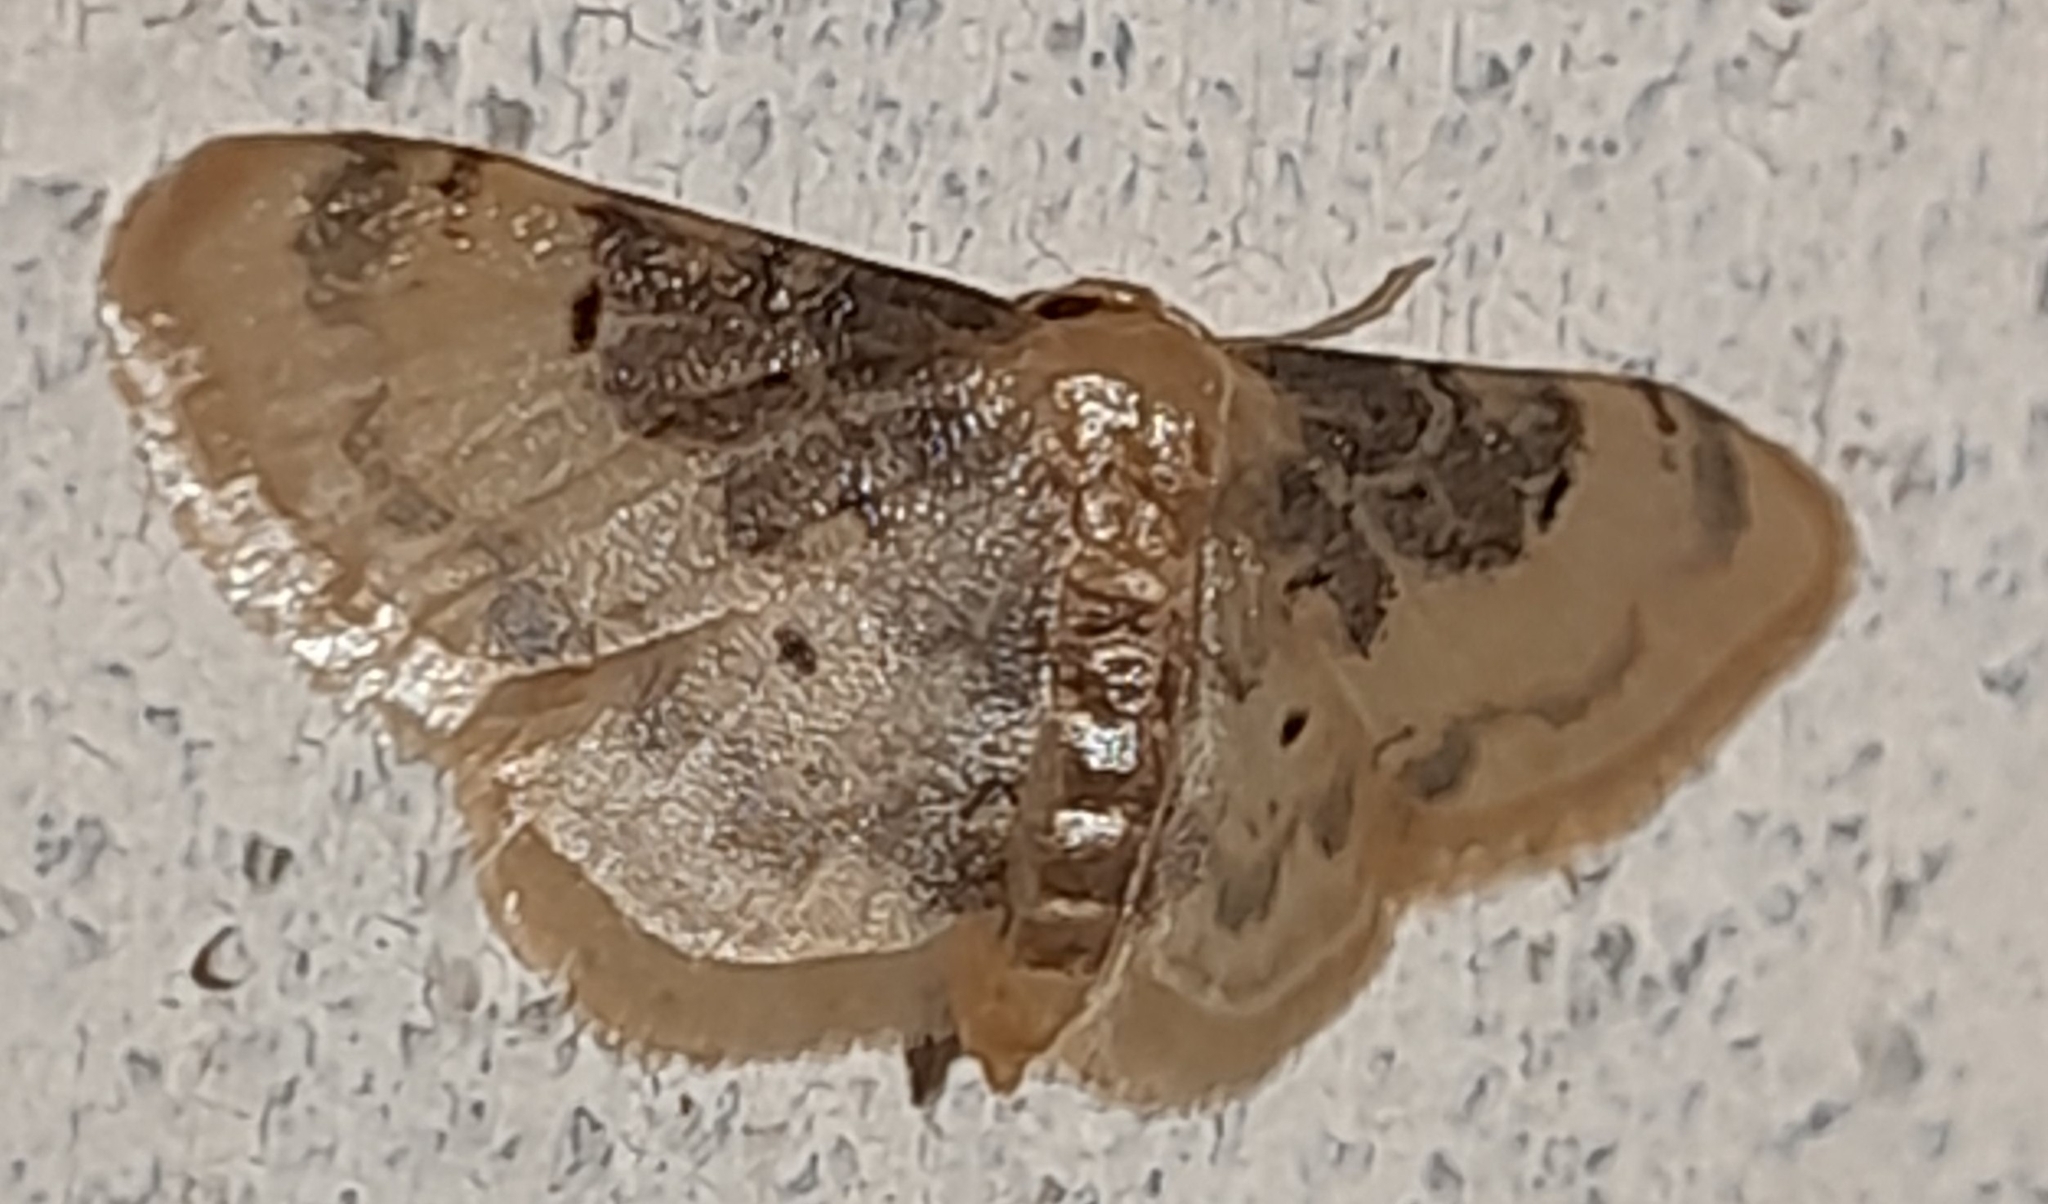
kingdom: Animalia
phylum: Arthropoda
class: Insecta
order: Lepidoptera
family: Geometridae
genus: Idaea
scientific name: Idaea filicata
